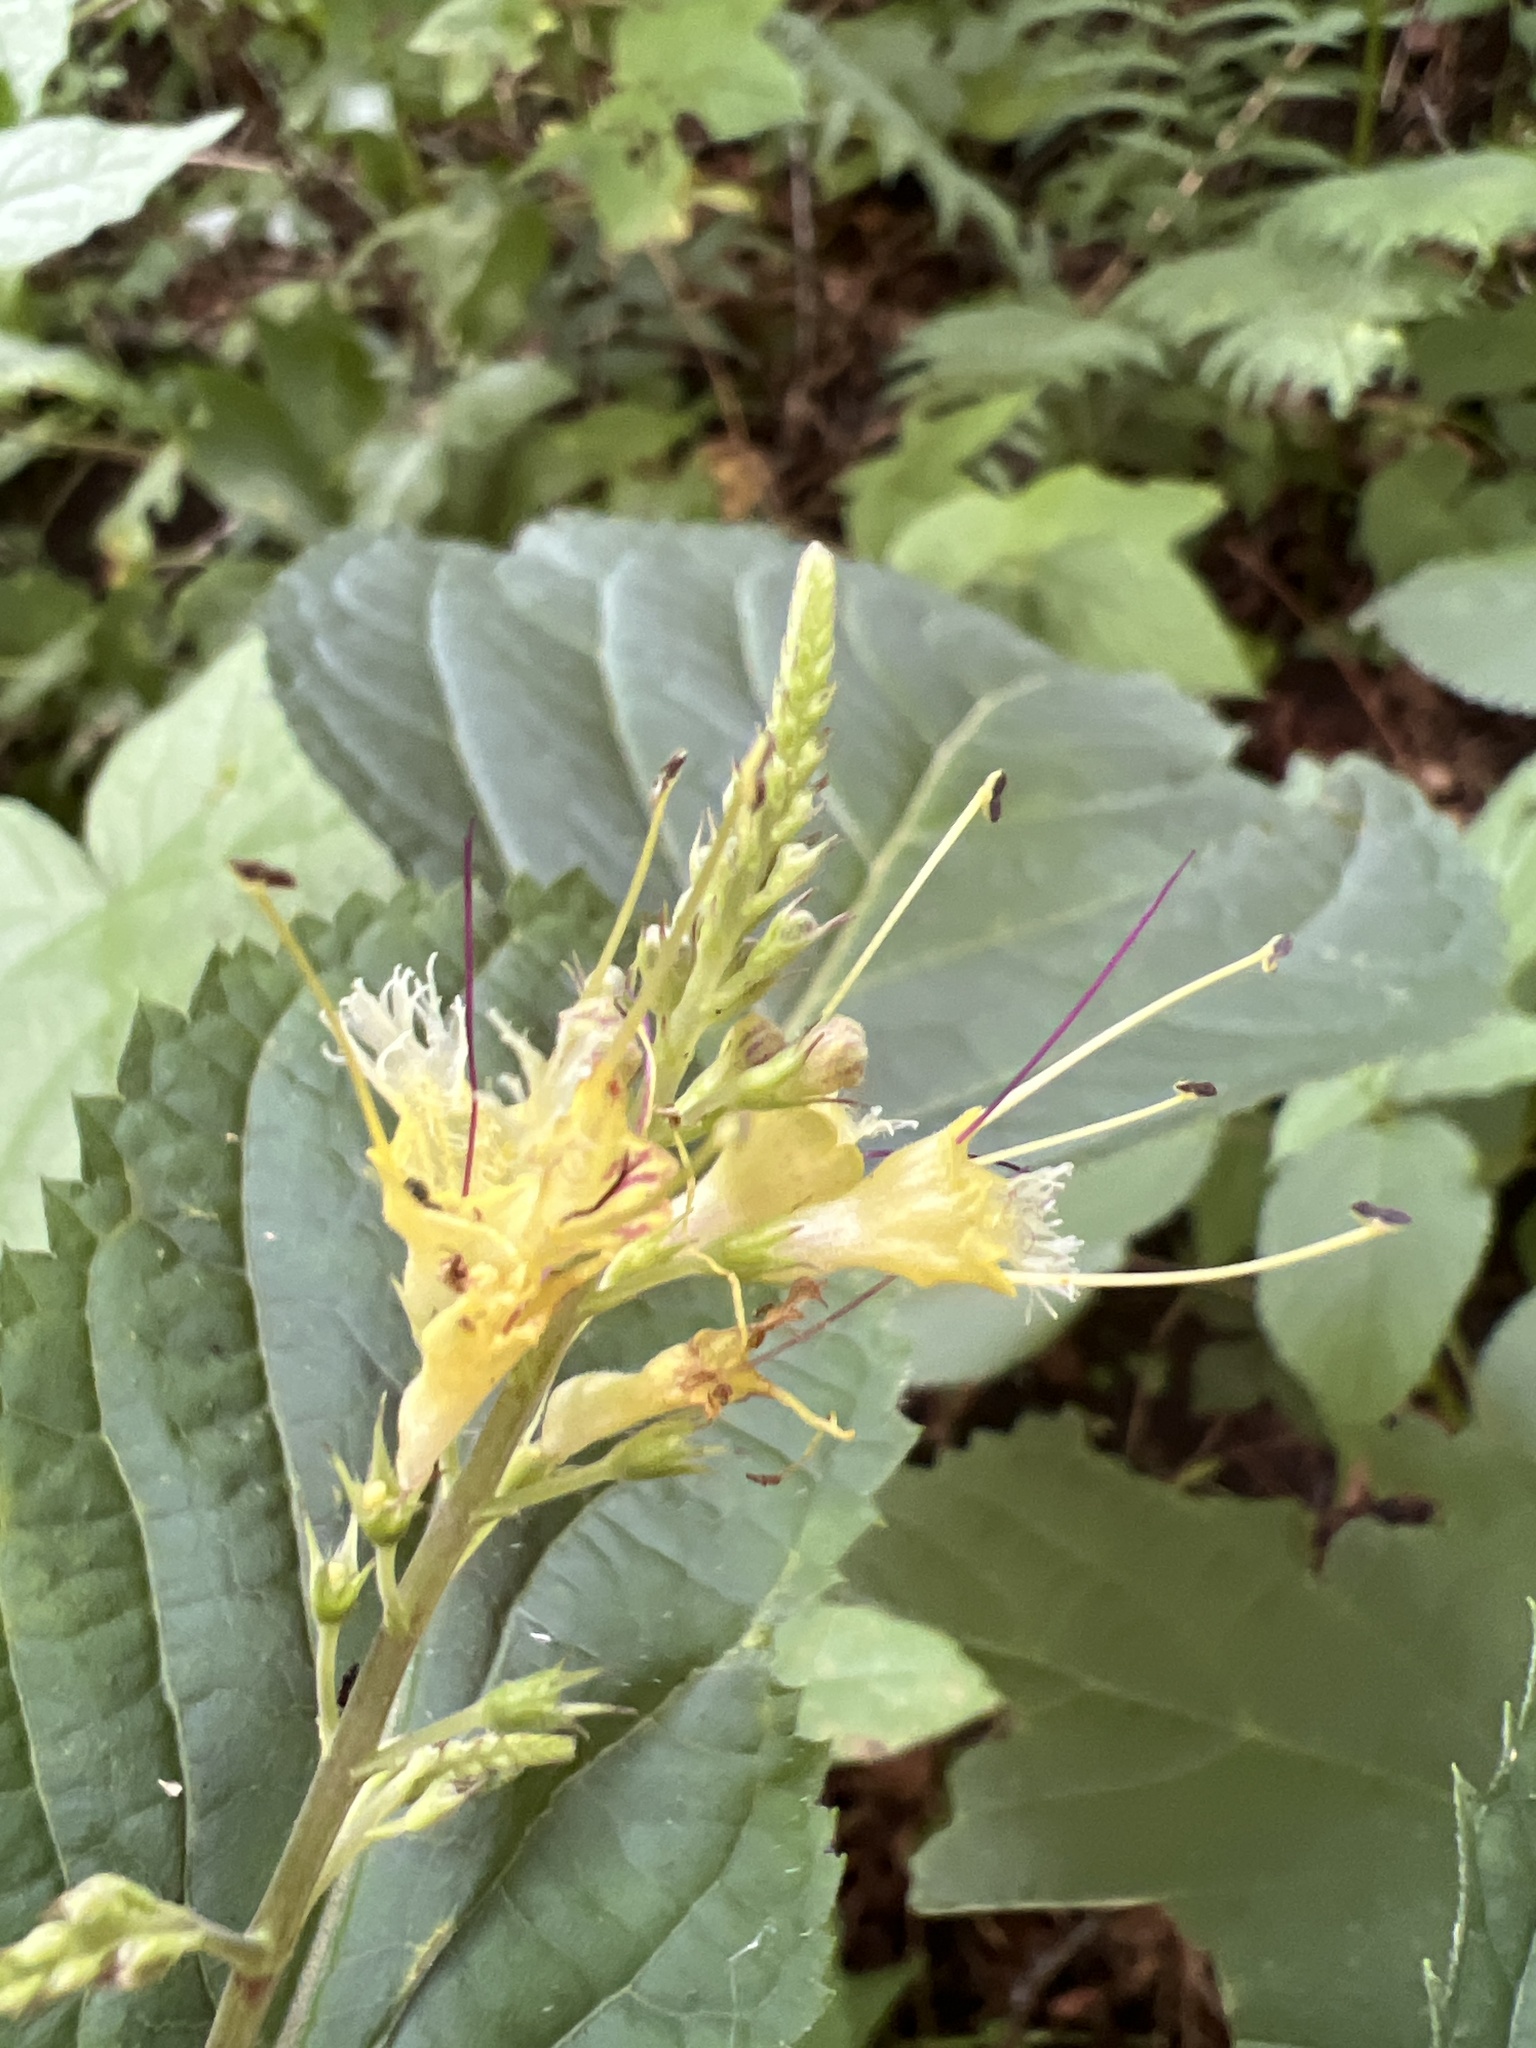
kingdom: Plantae
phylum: Tracheophyta
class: Magnoliopsida
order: Lamiales
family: Lamiaceae
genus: Collinsonia
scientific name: Collinsonia canadensis
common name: Northern horsebalm
